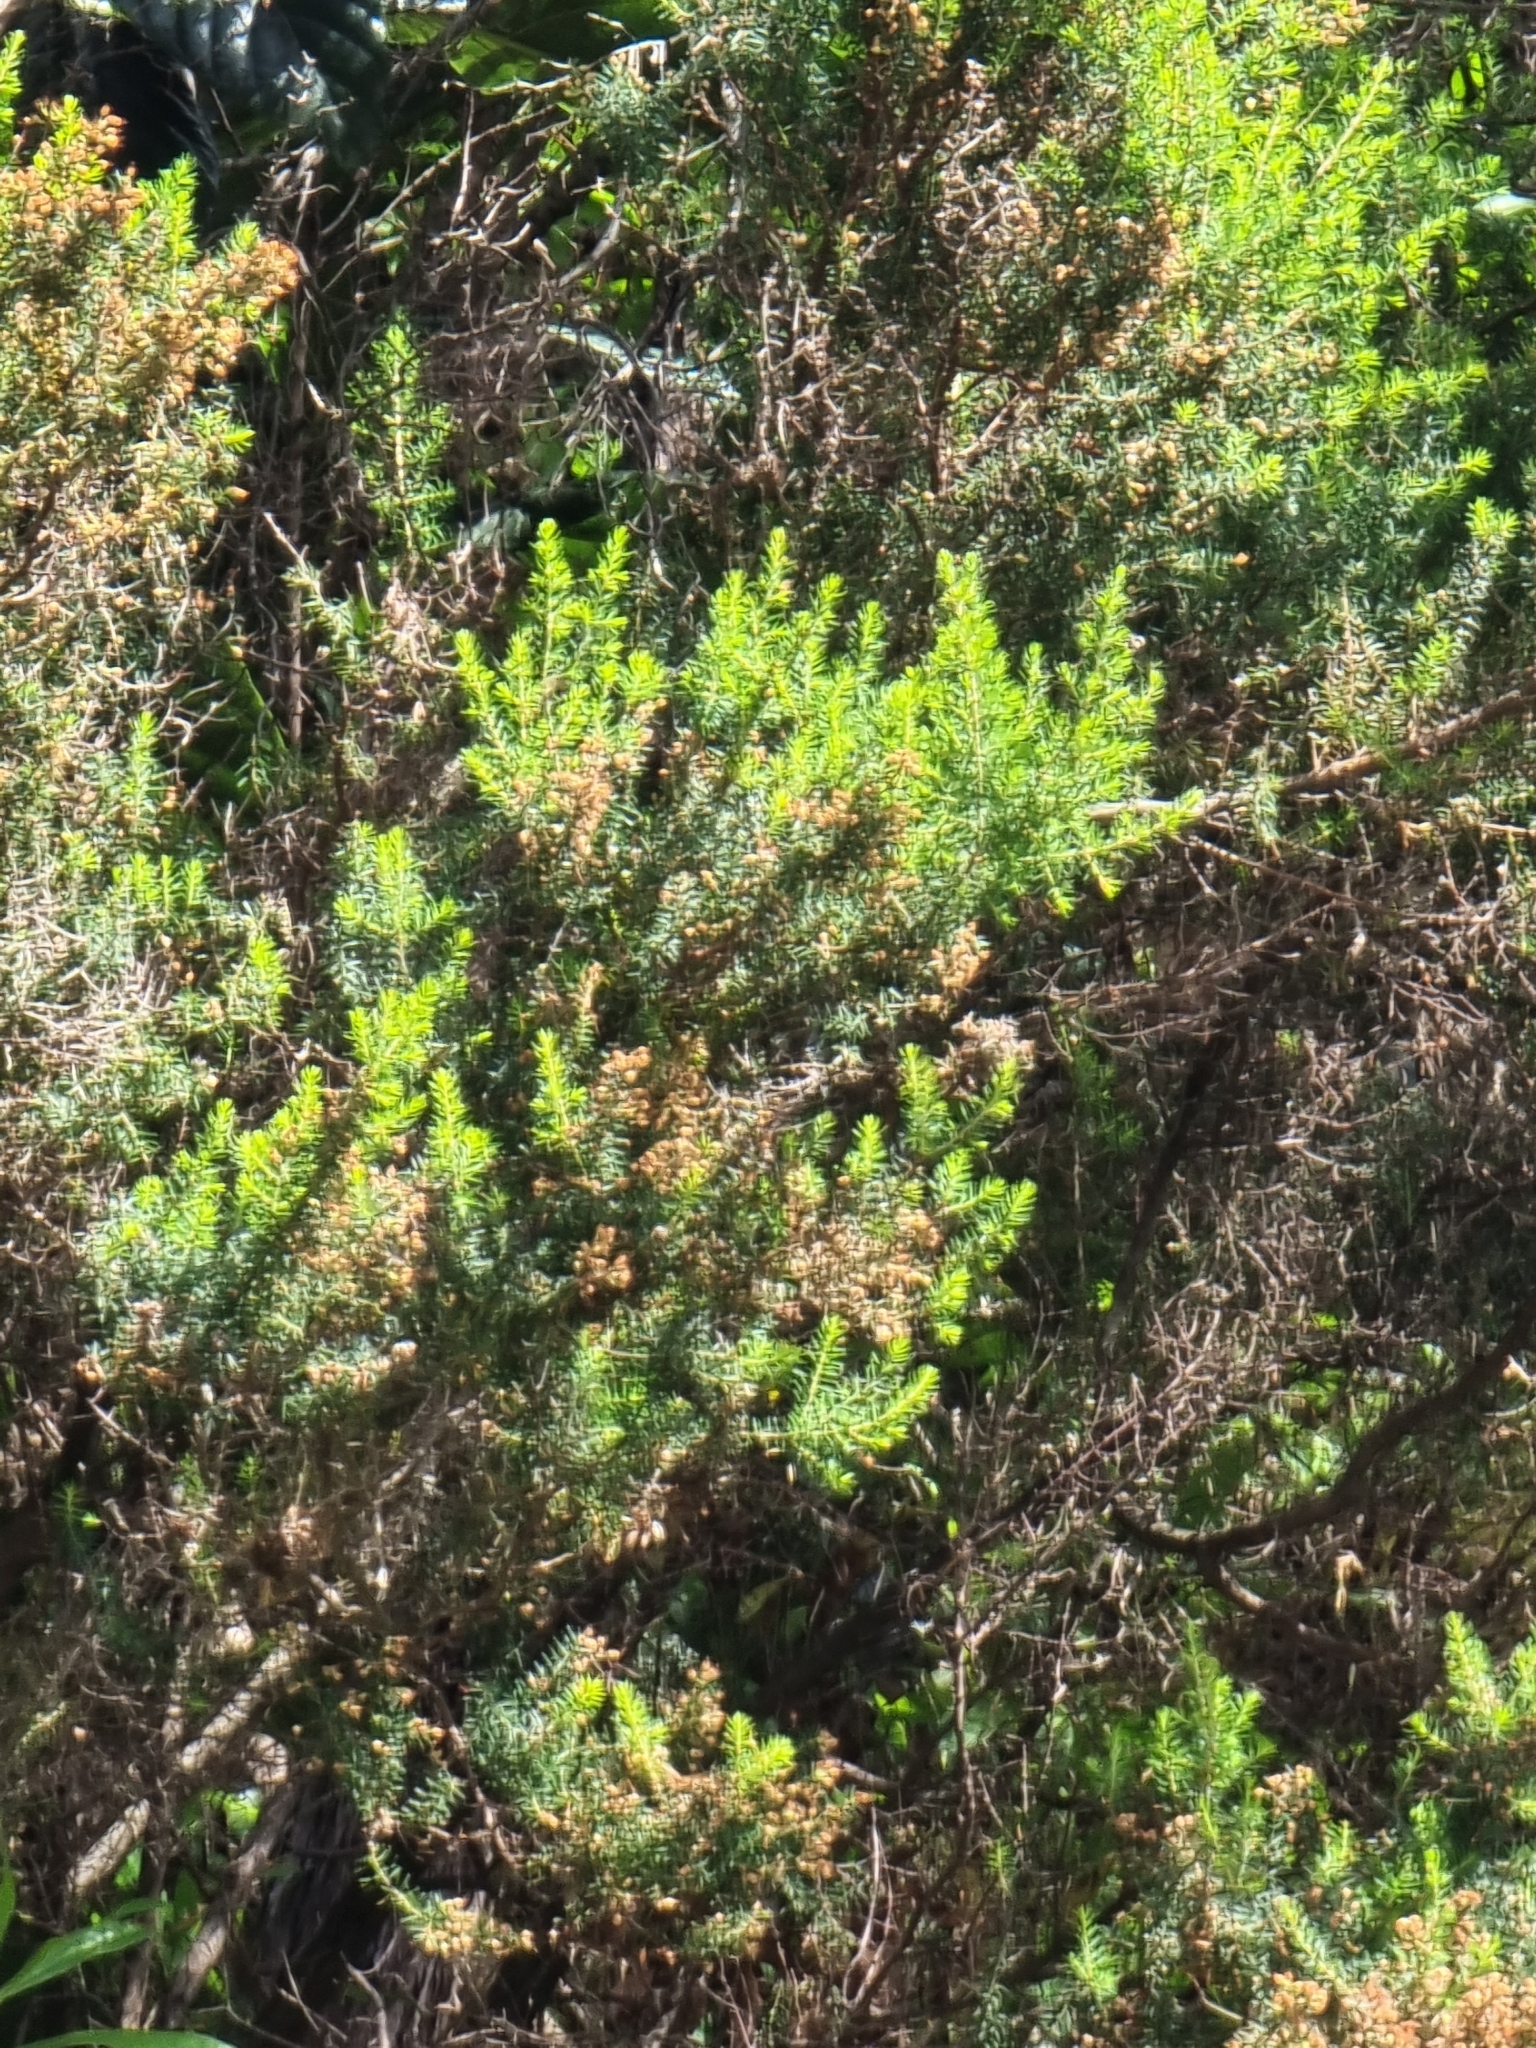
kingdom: Plantae
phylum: Tracheophyta
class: Magnoliopsida
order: Ericales
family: Ericaceae
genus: Erica
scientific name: Erica platycodon
